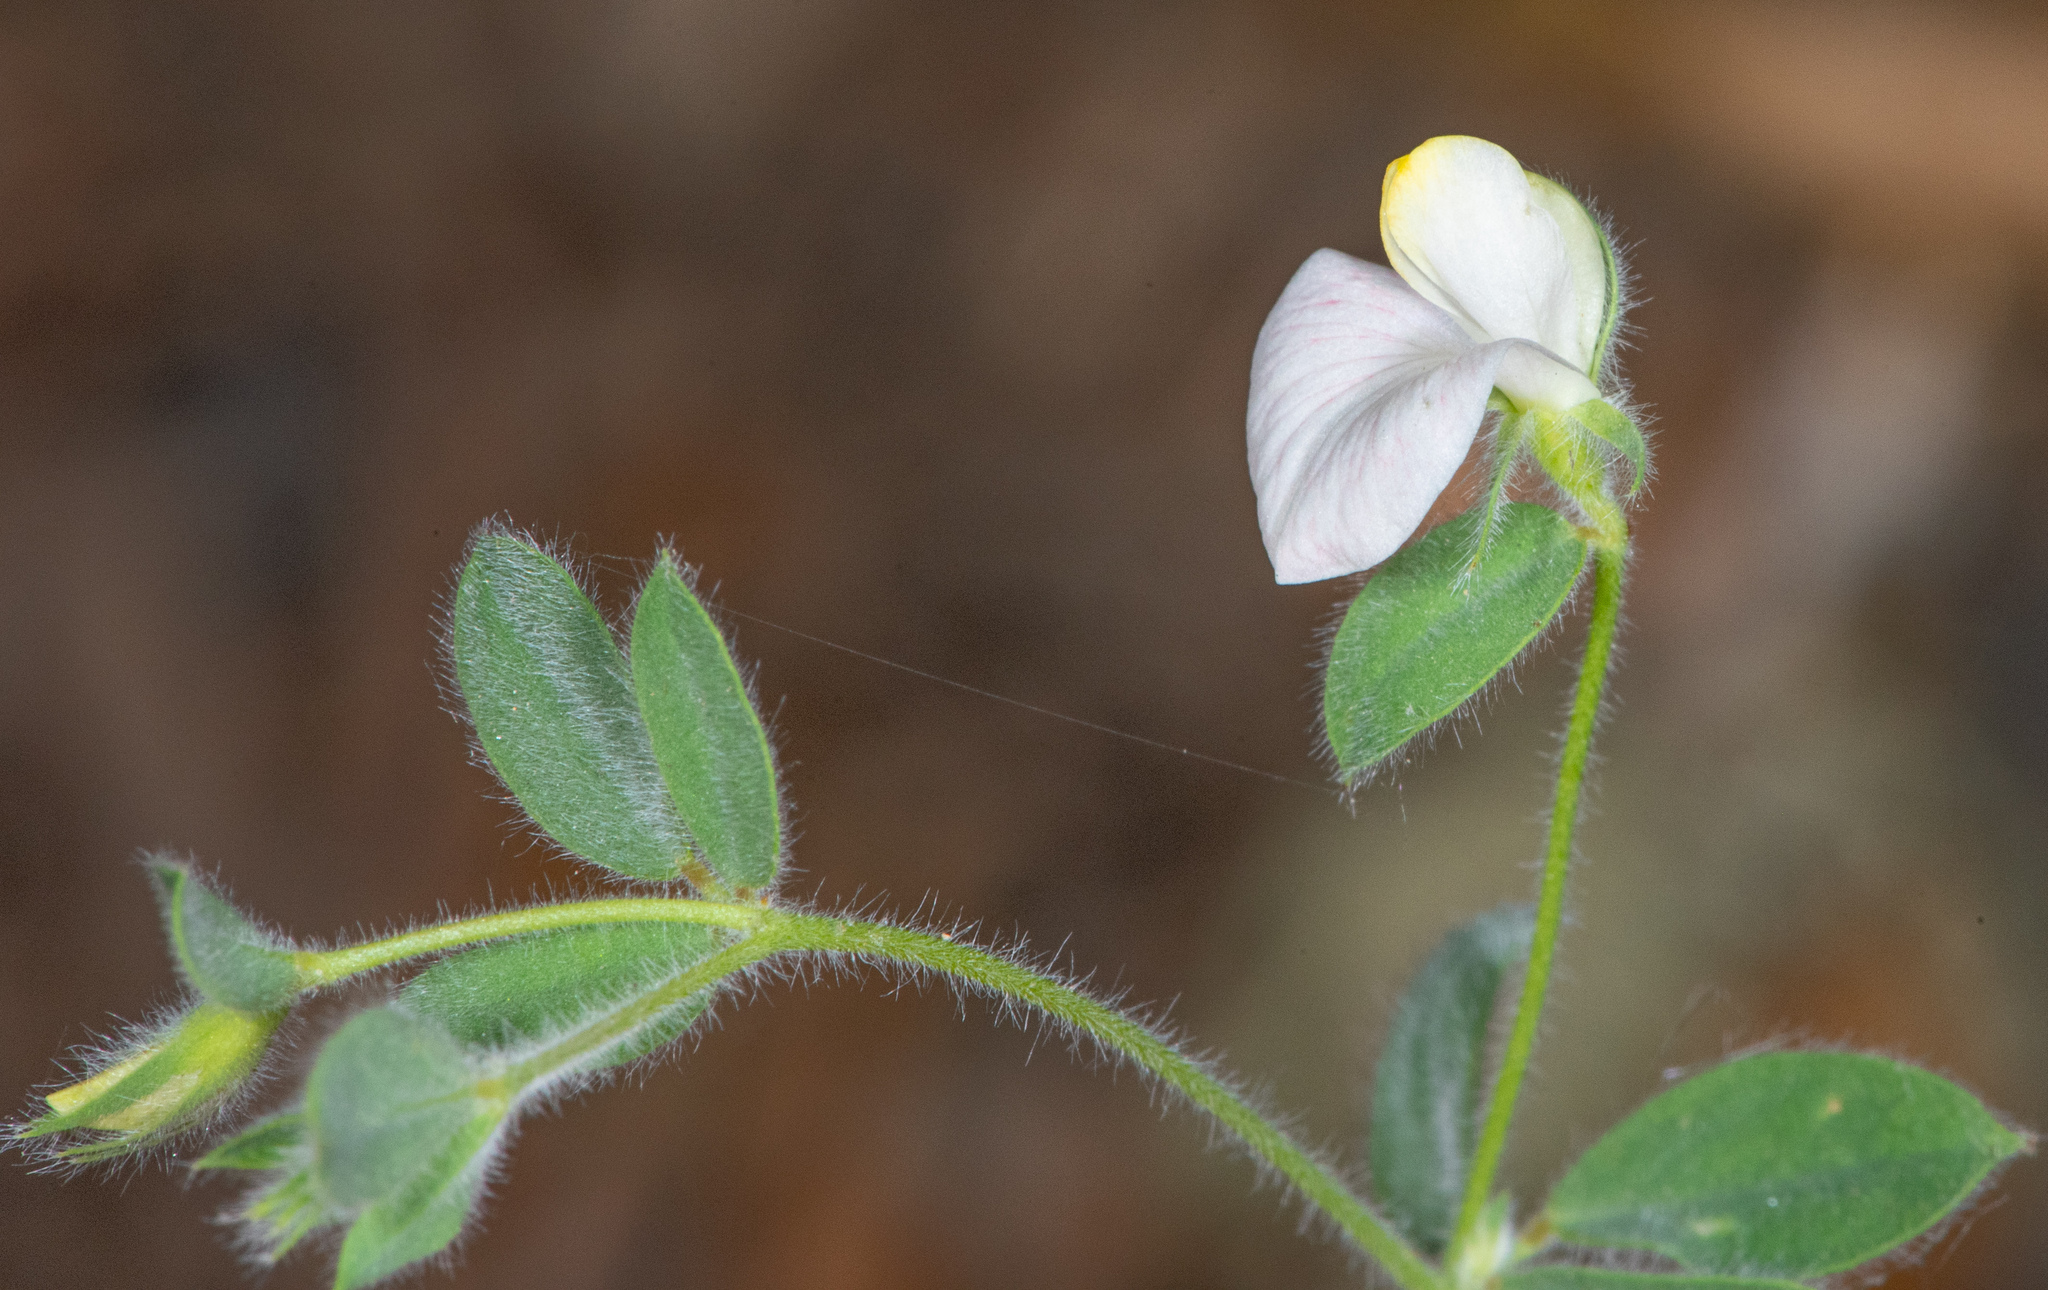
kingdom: Plantae
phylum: Tracheophyta
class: Magnoliopsida
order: Fabales
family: Fabaceae
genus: Acmispon
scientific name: Acmispon americanus
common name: American bird's-foot trefoil
